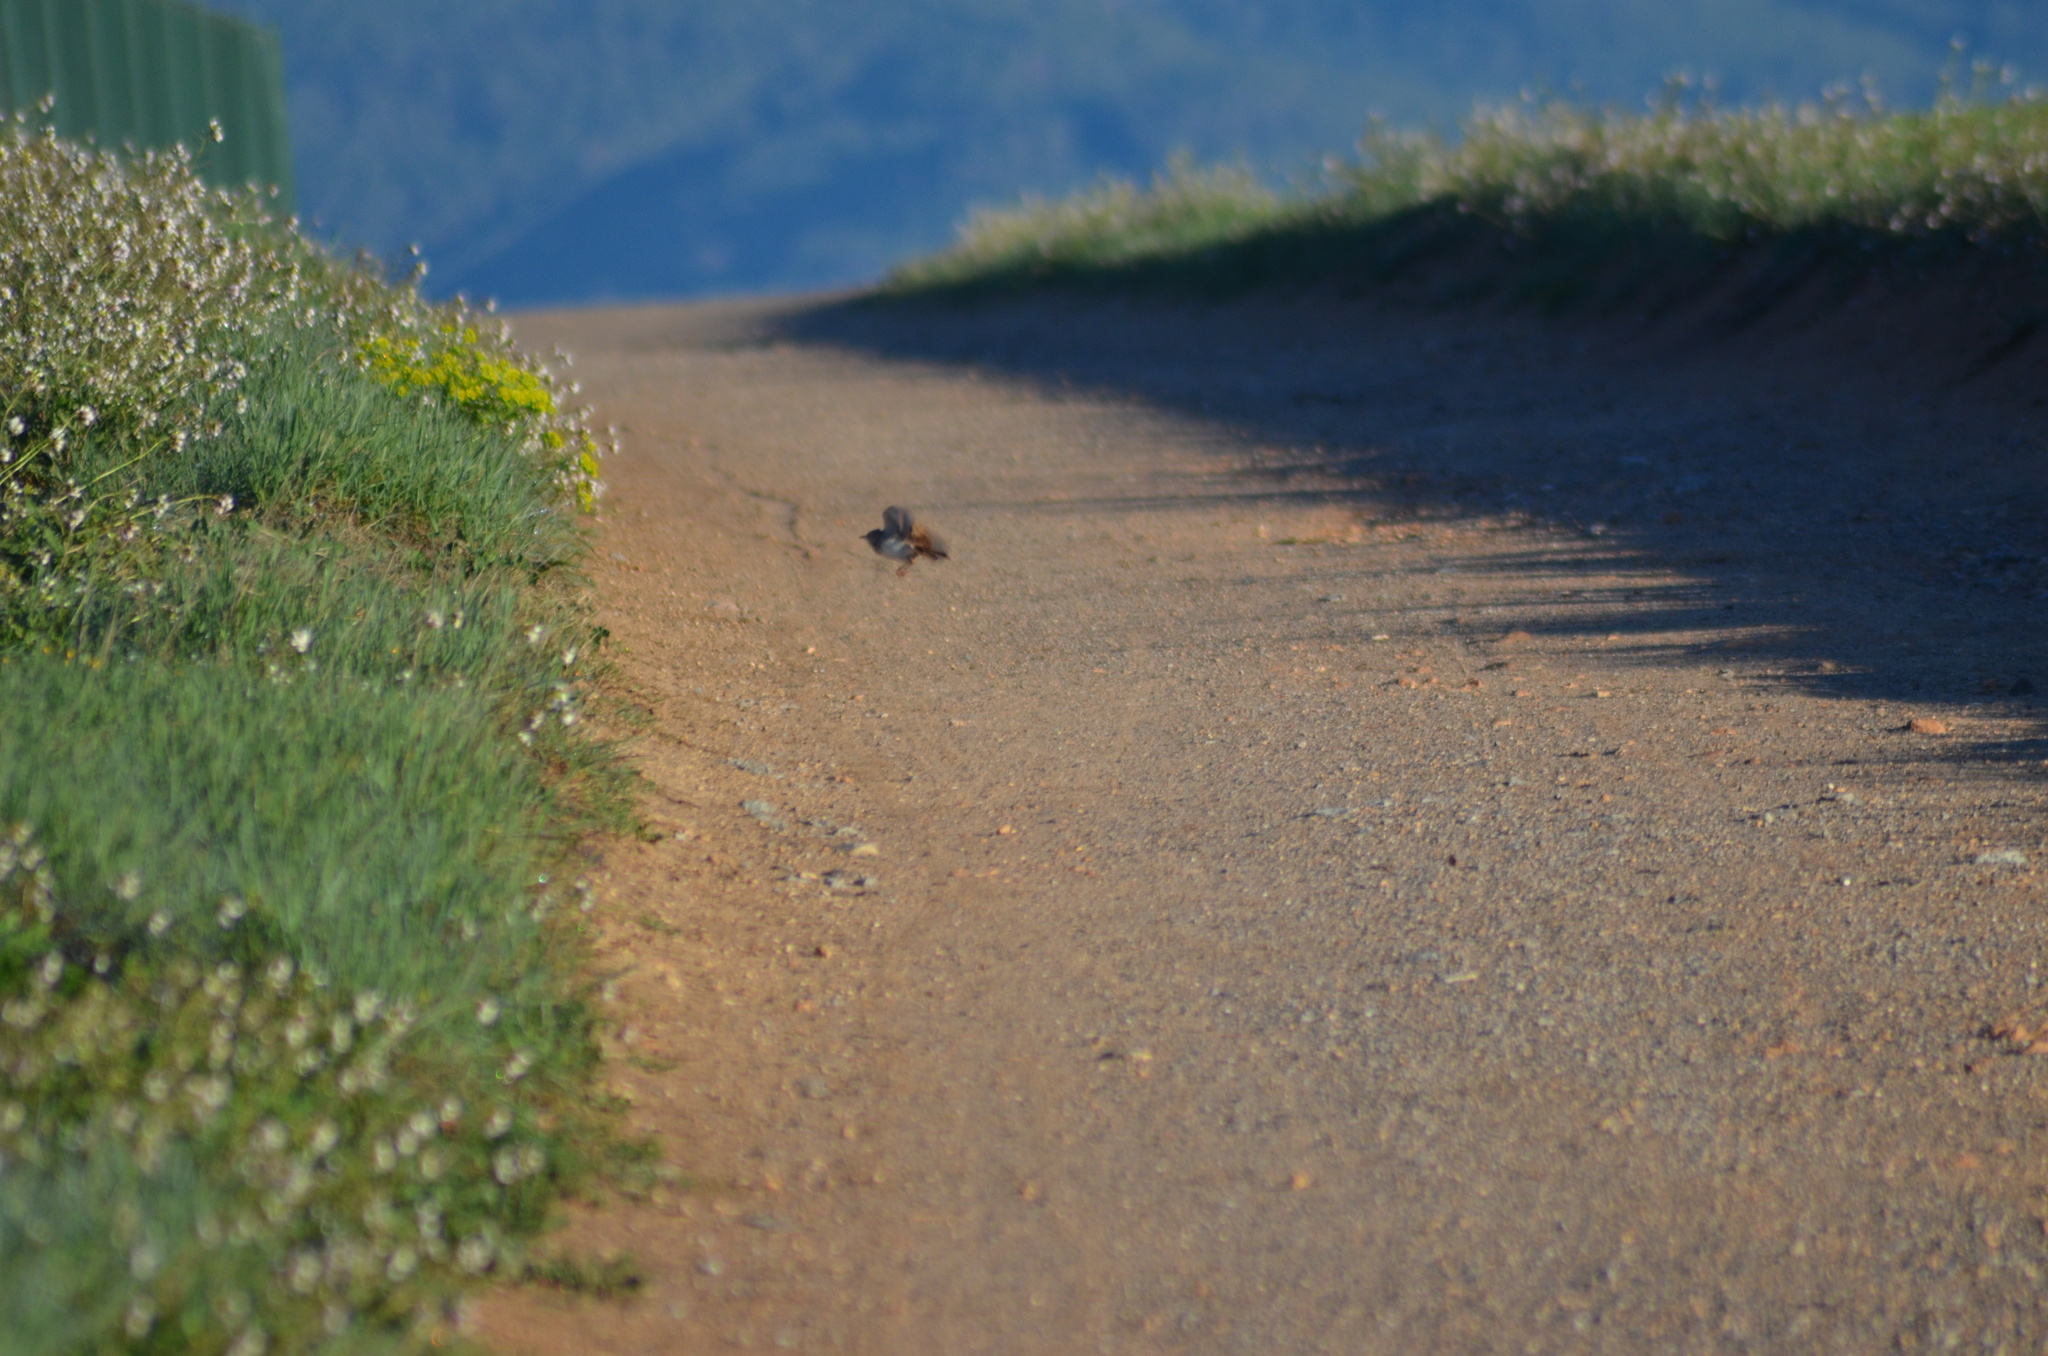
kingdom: Animalia
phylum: Chordata
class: Aves
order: Passeriformes
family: Alaudidae
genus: Galerida
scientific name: Galerida cristata
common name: Crested lark
